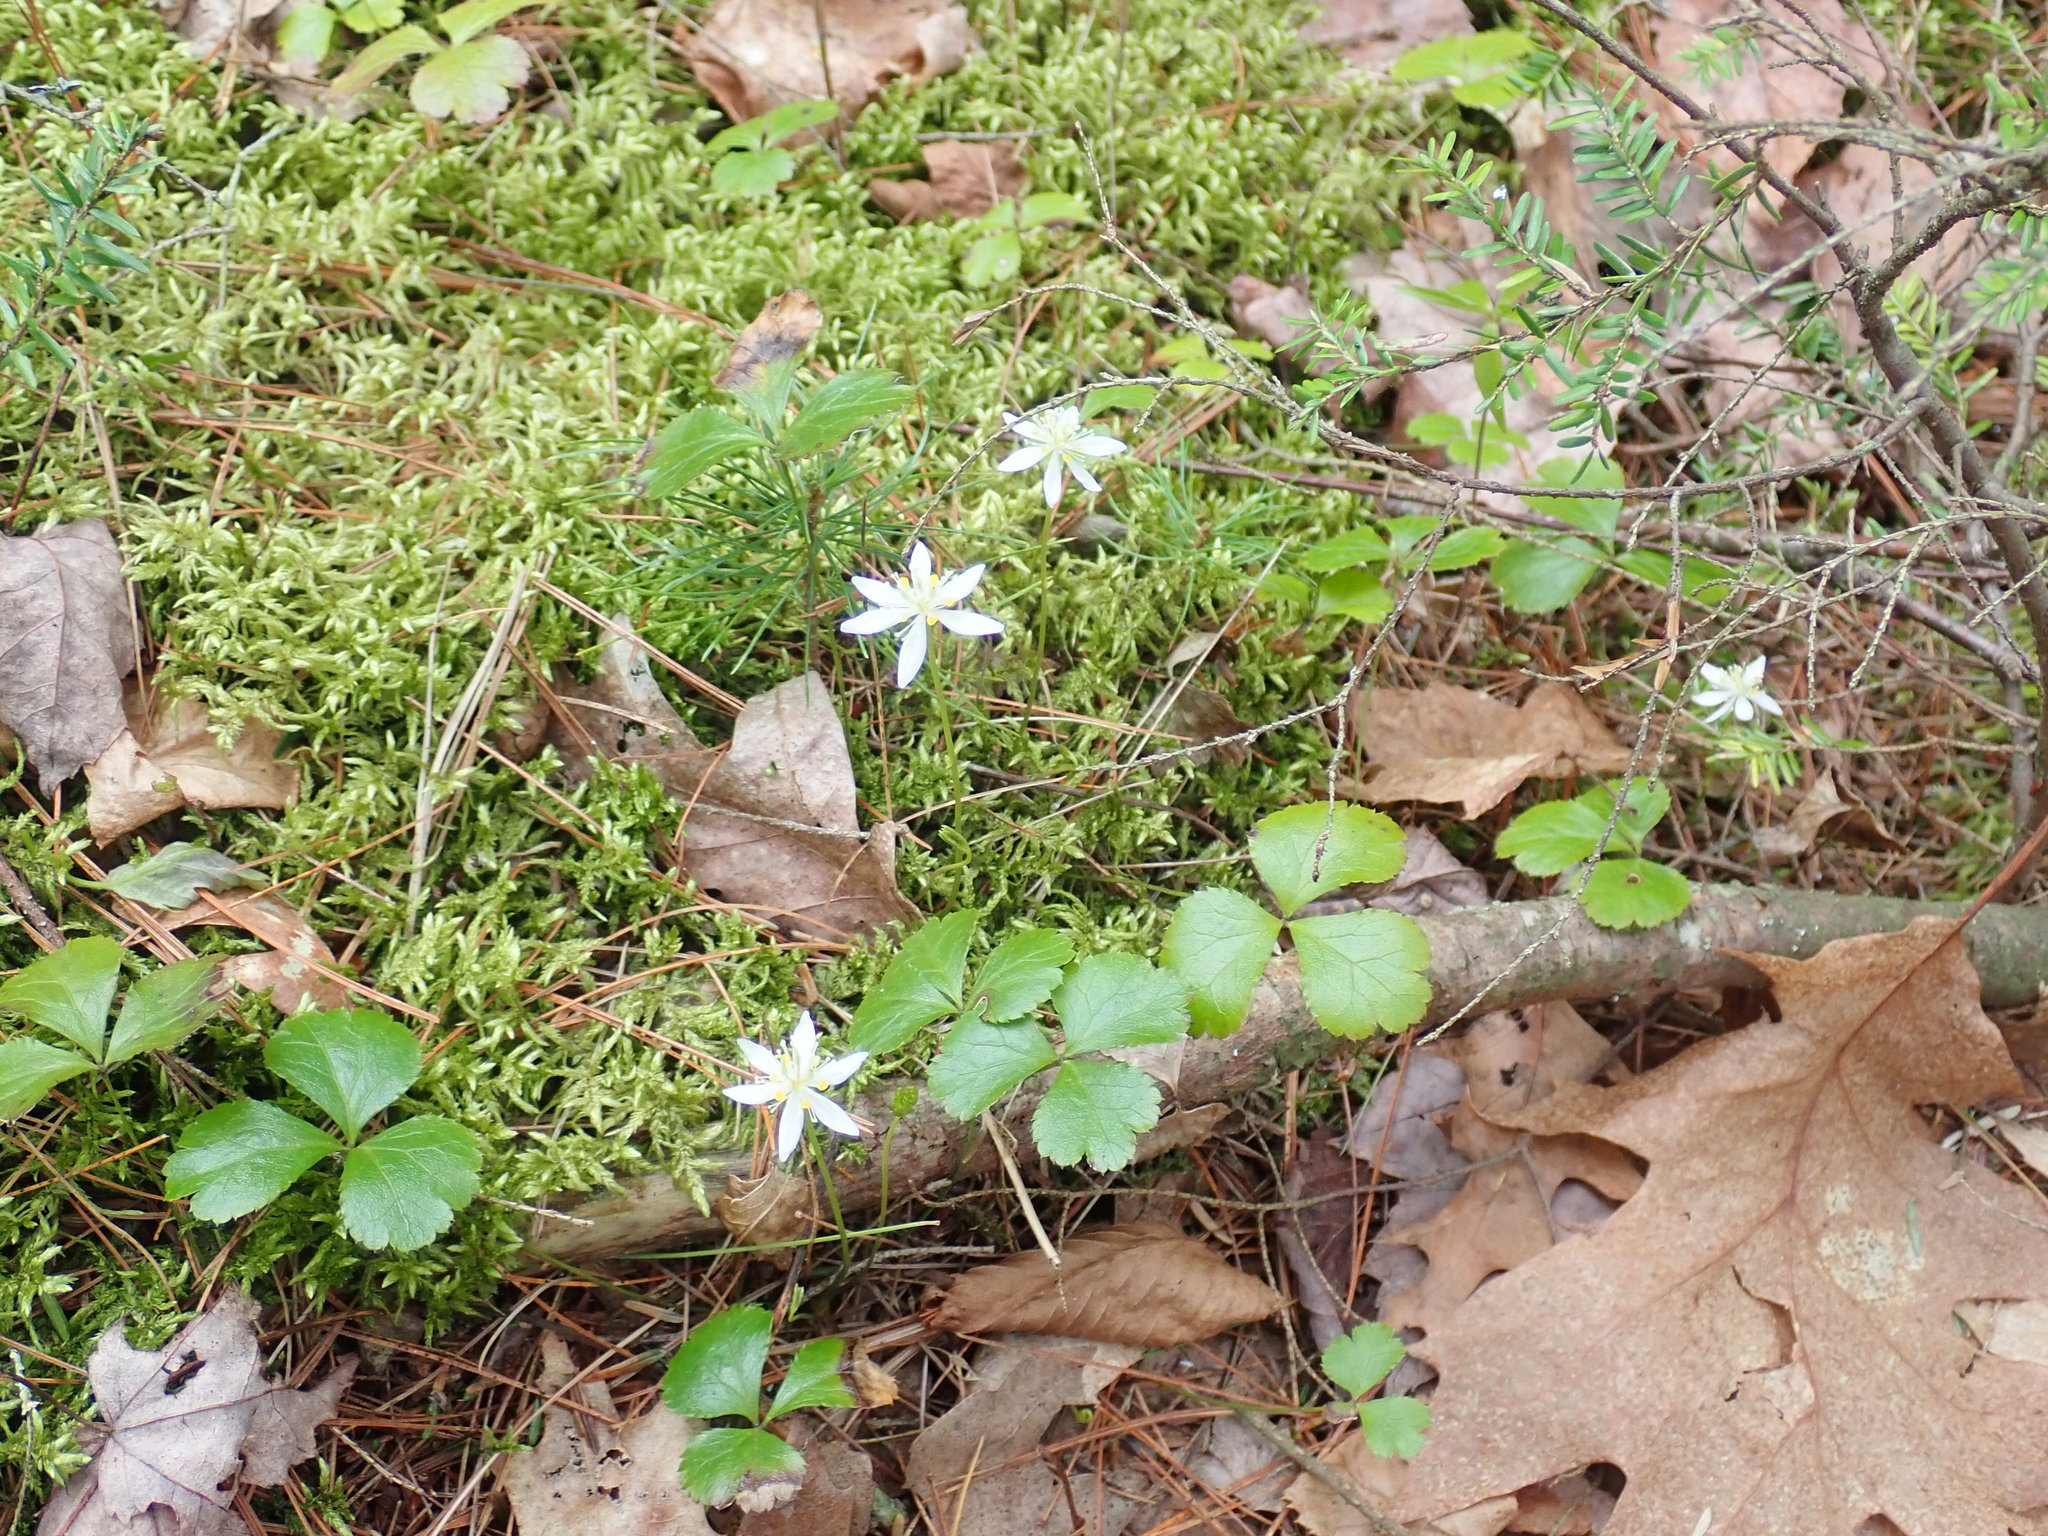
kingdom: Plantae
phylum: Tracheophyta
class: Magnoliopsida
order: Ranunculales
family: Ranunculaceae
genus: Coptis
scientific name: Coptis trifolia
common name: Canker-root
